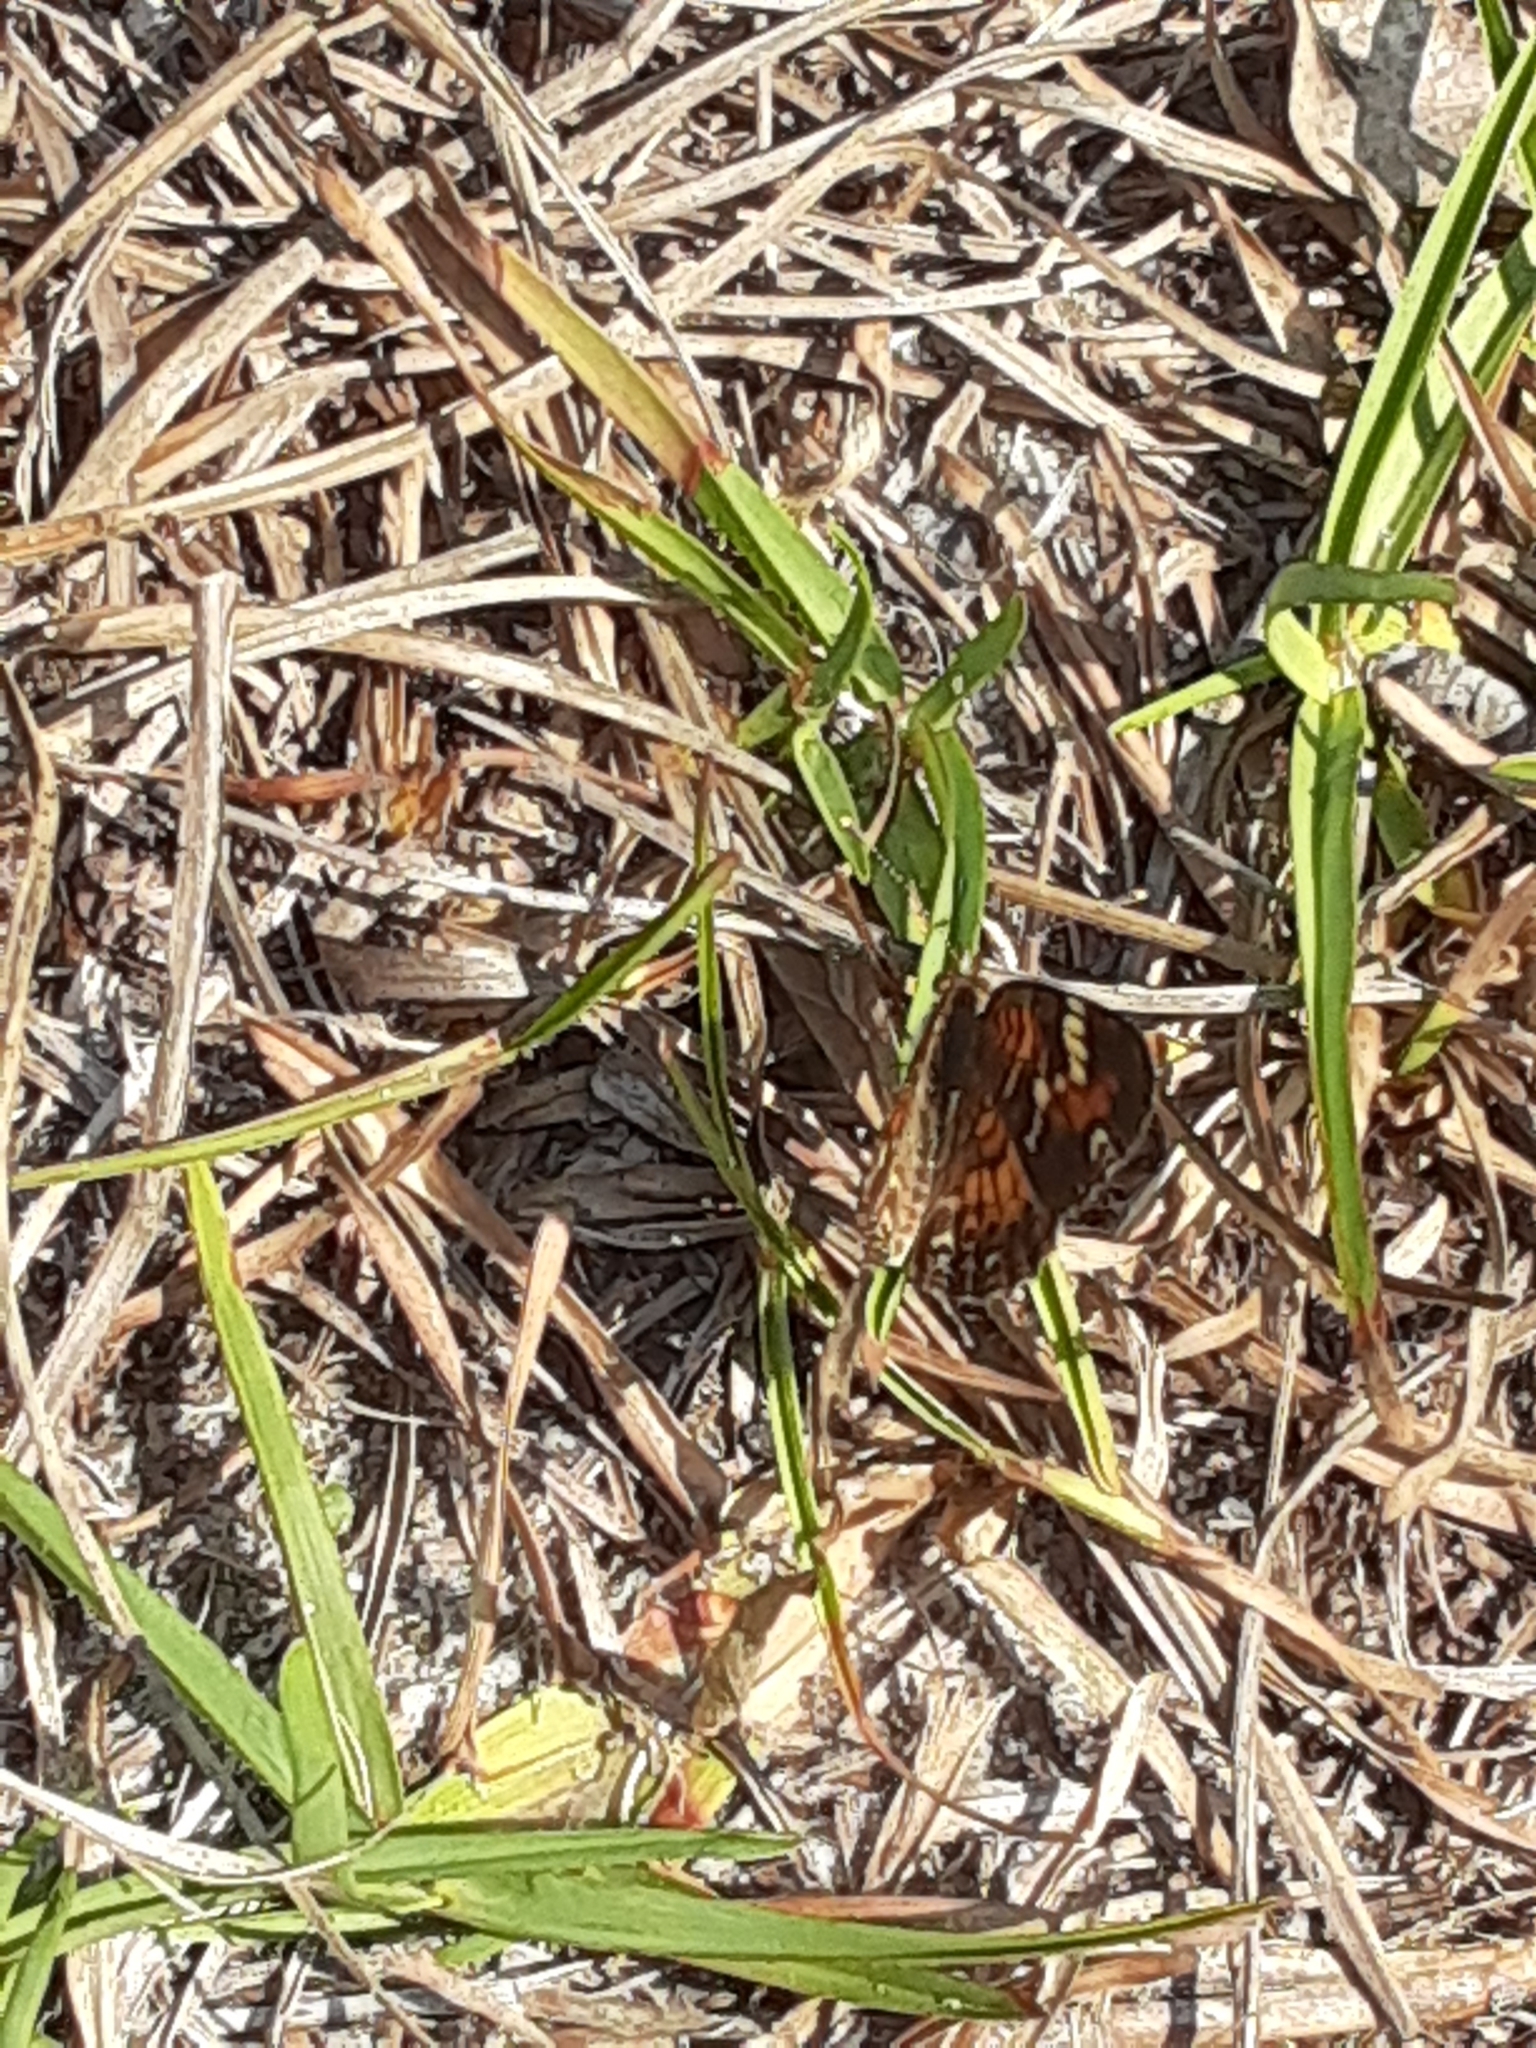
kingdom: Animalia
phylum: Arthropoda
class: Insecta
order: Lepidoptera
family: Nymphalidae
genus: Phyciodes
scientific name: Phyciodes phaon
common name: Phaon crescent
